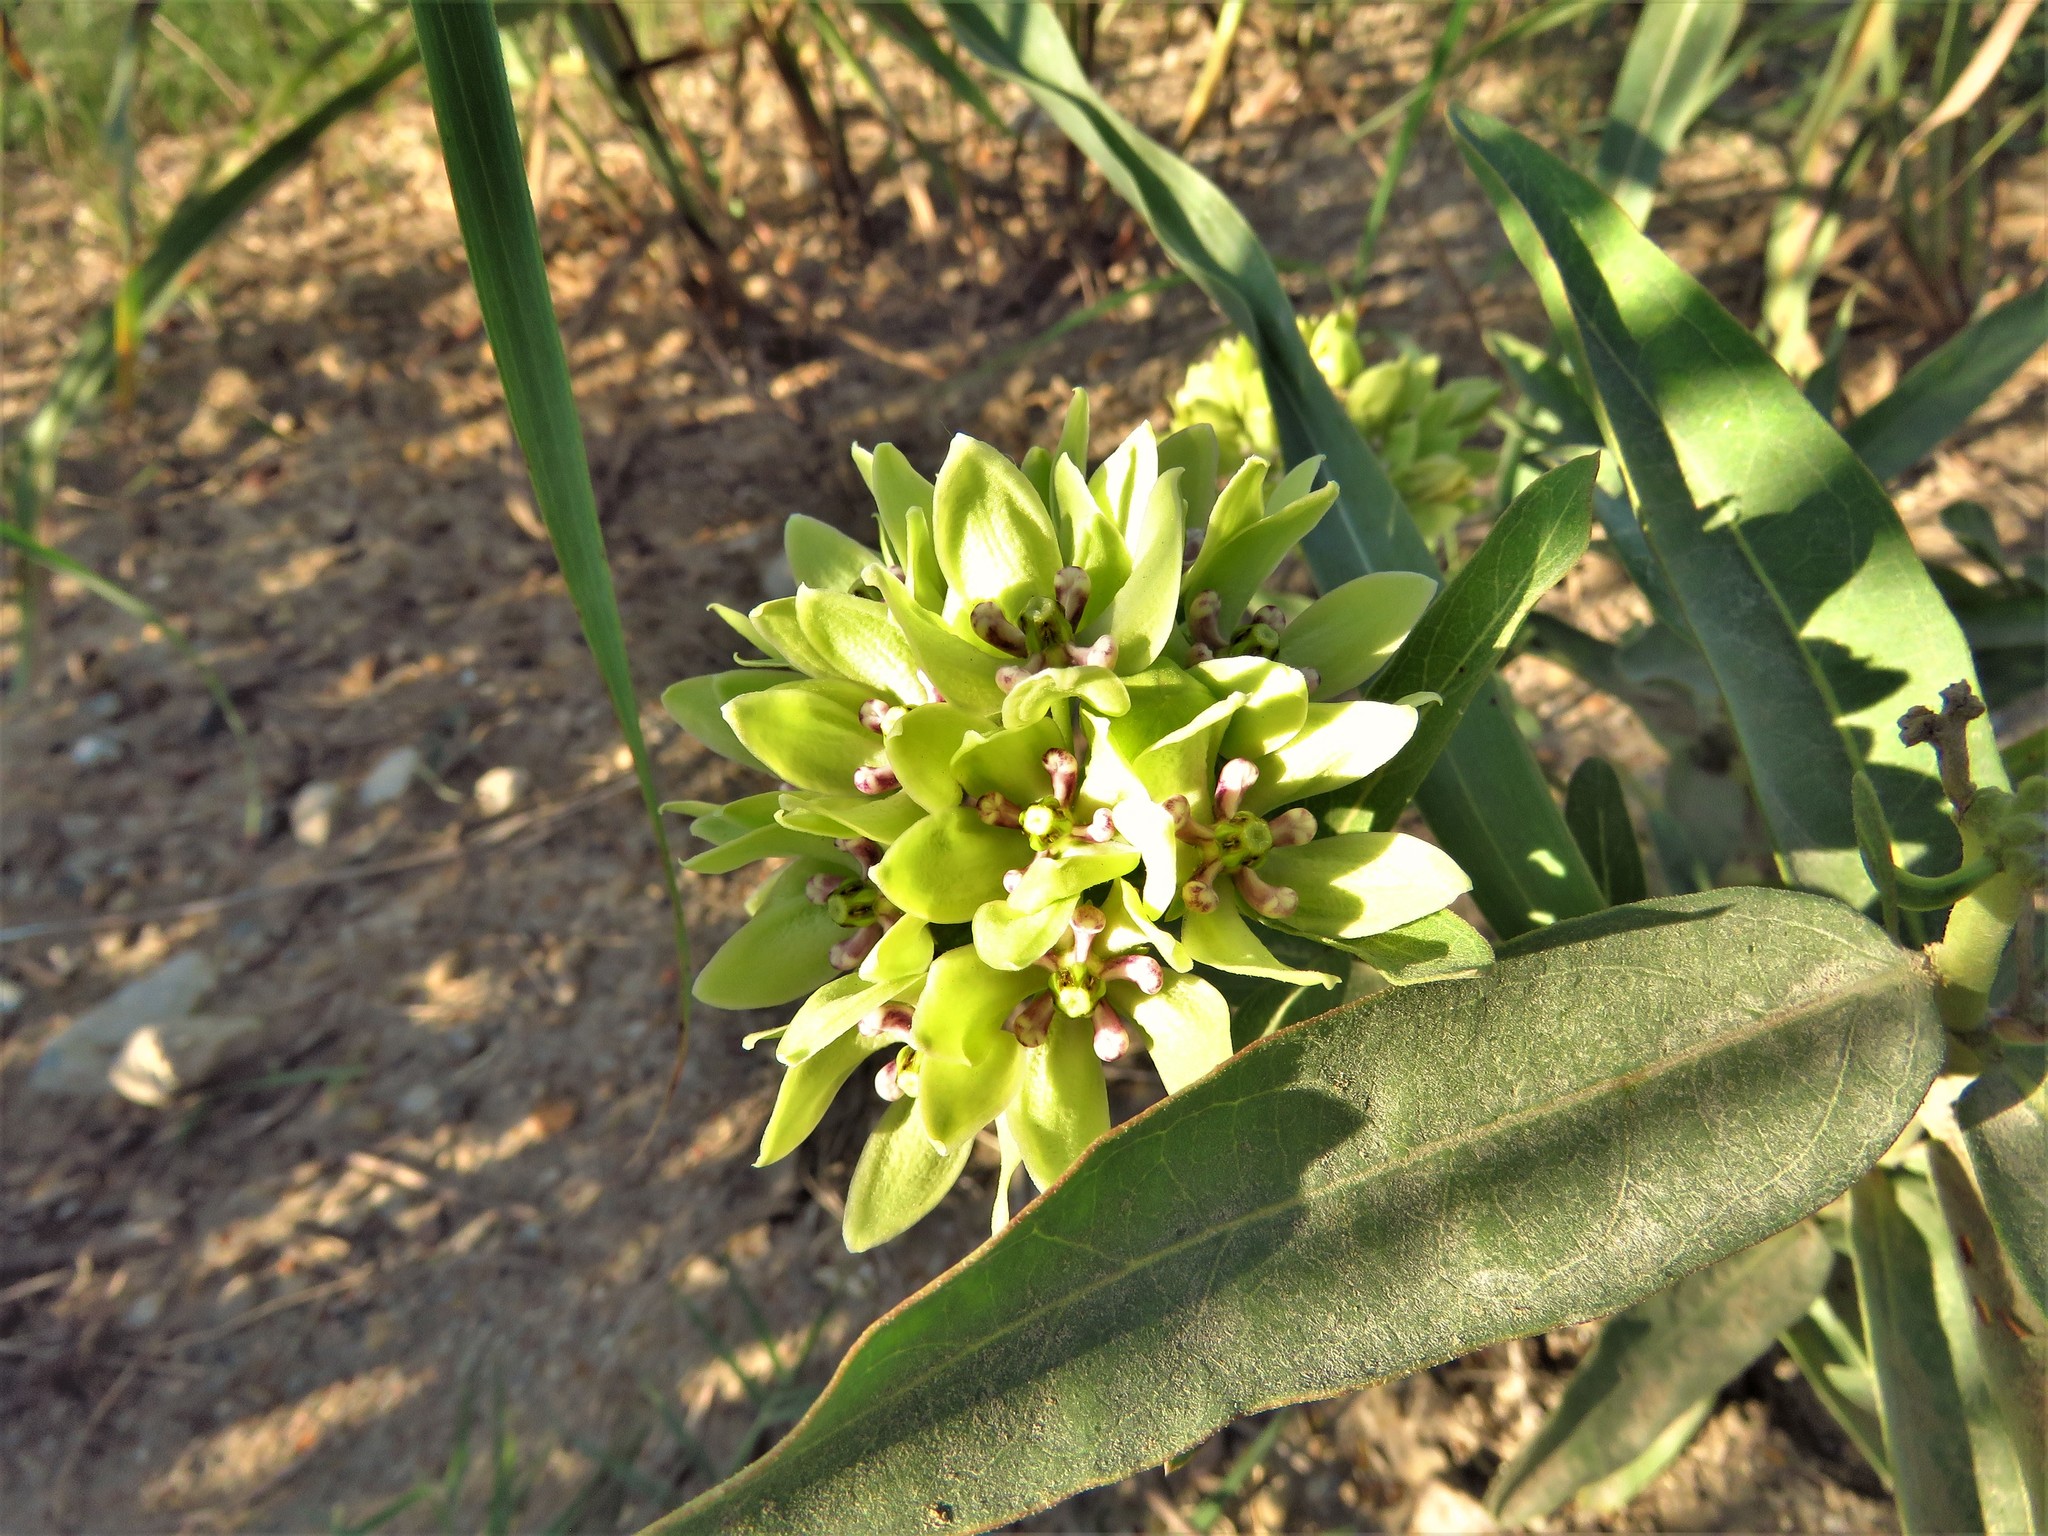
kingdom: Plantae
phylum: Tracheophyta
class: Magnoliopsida
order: Gentianales
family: Apocynaceae
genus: Asclepias
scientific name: Asclepias viridis
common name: Antelope-horns
